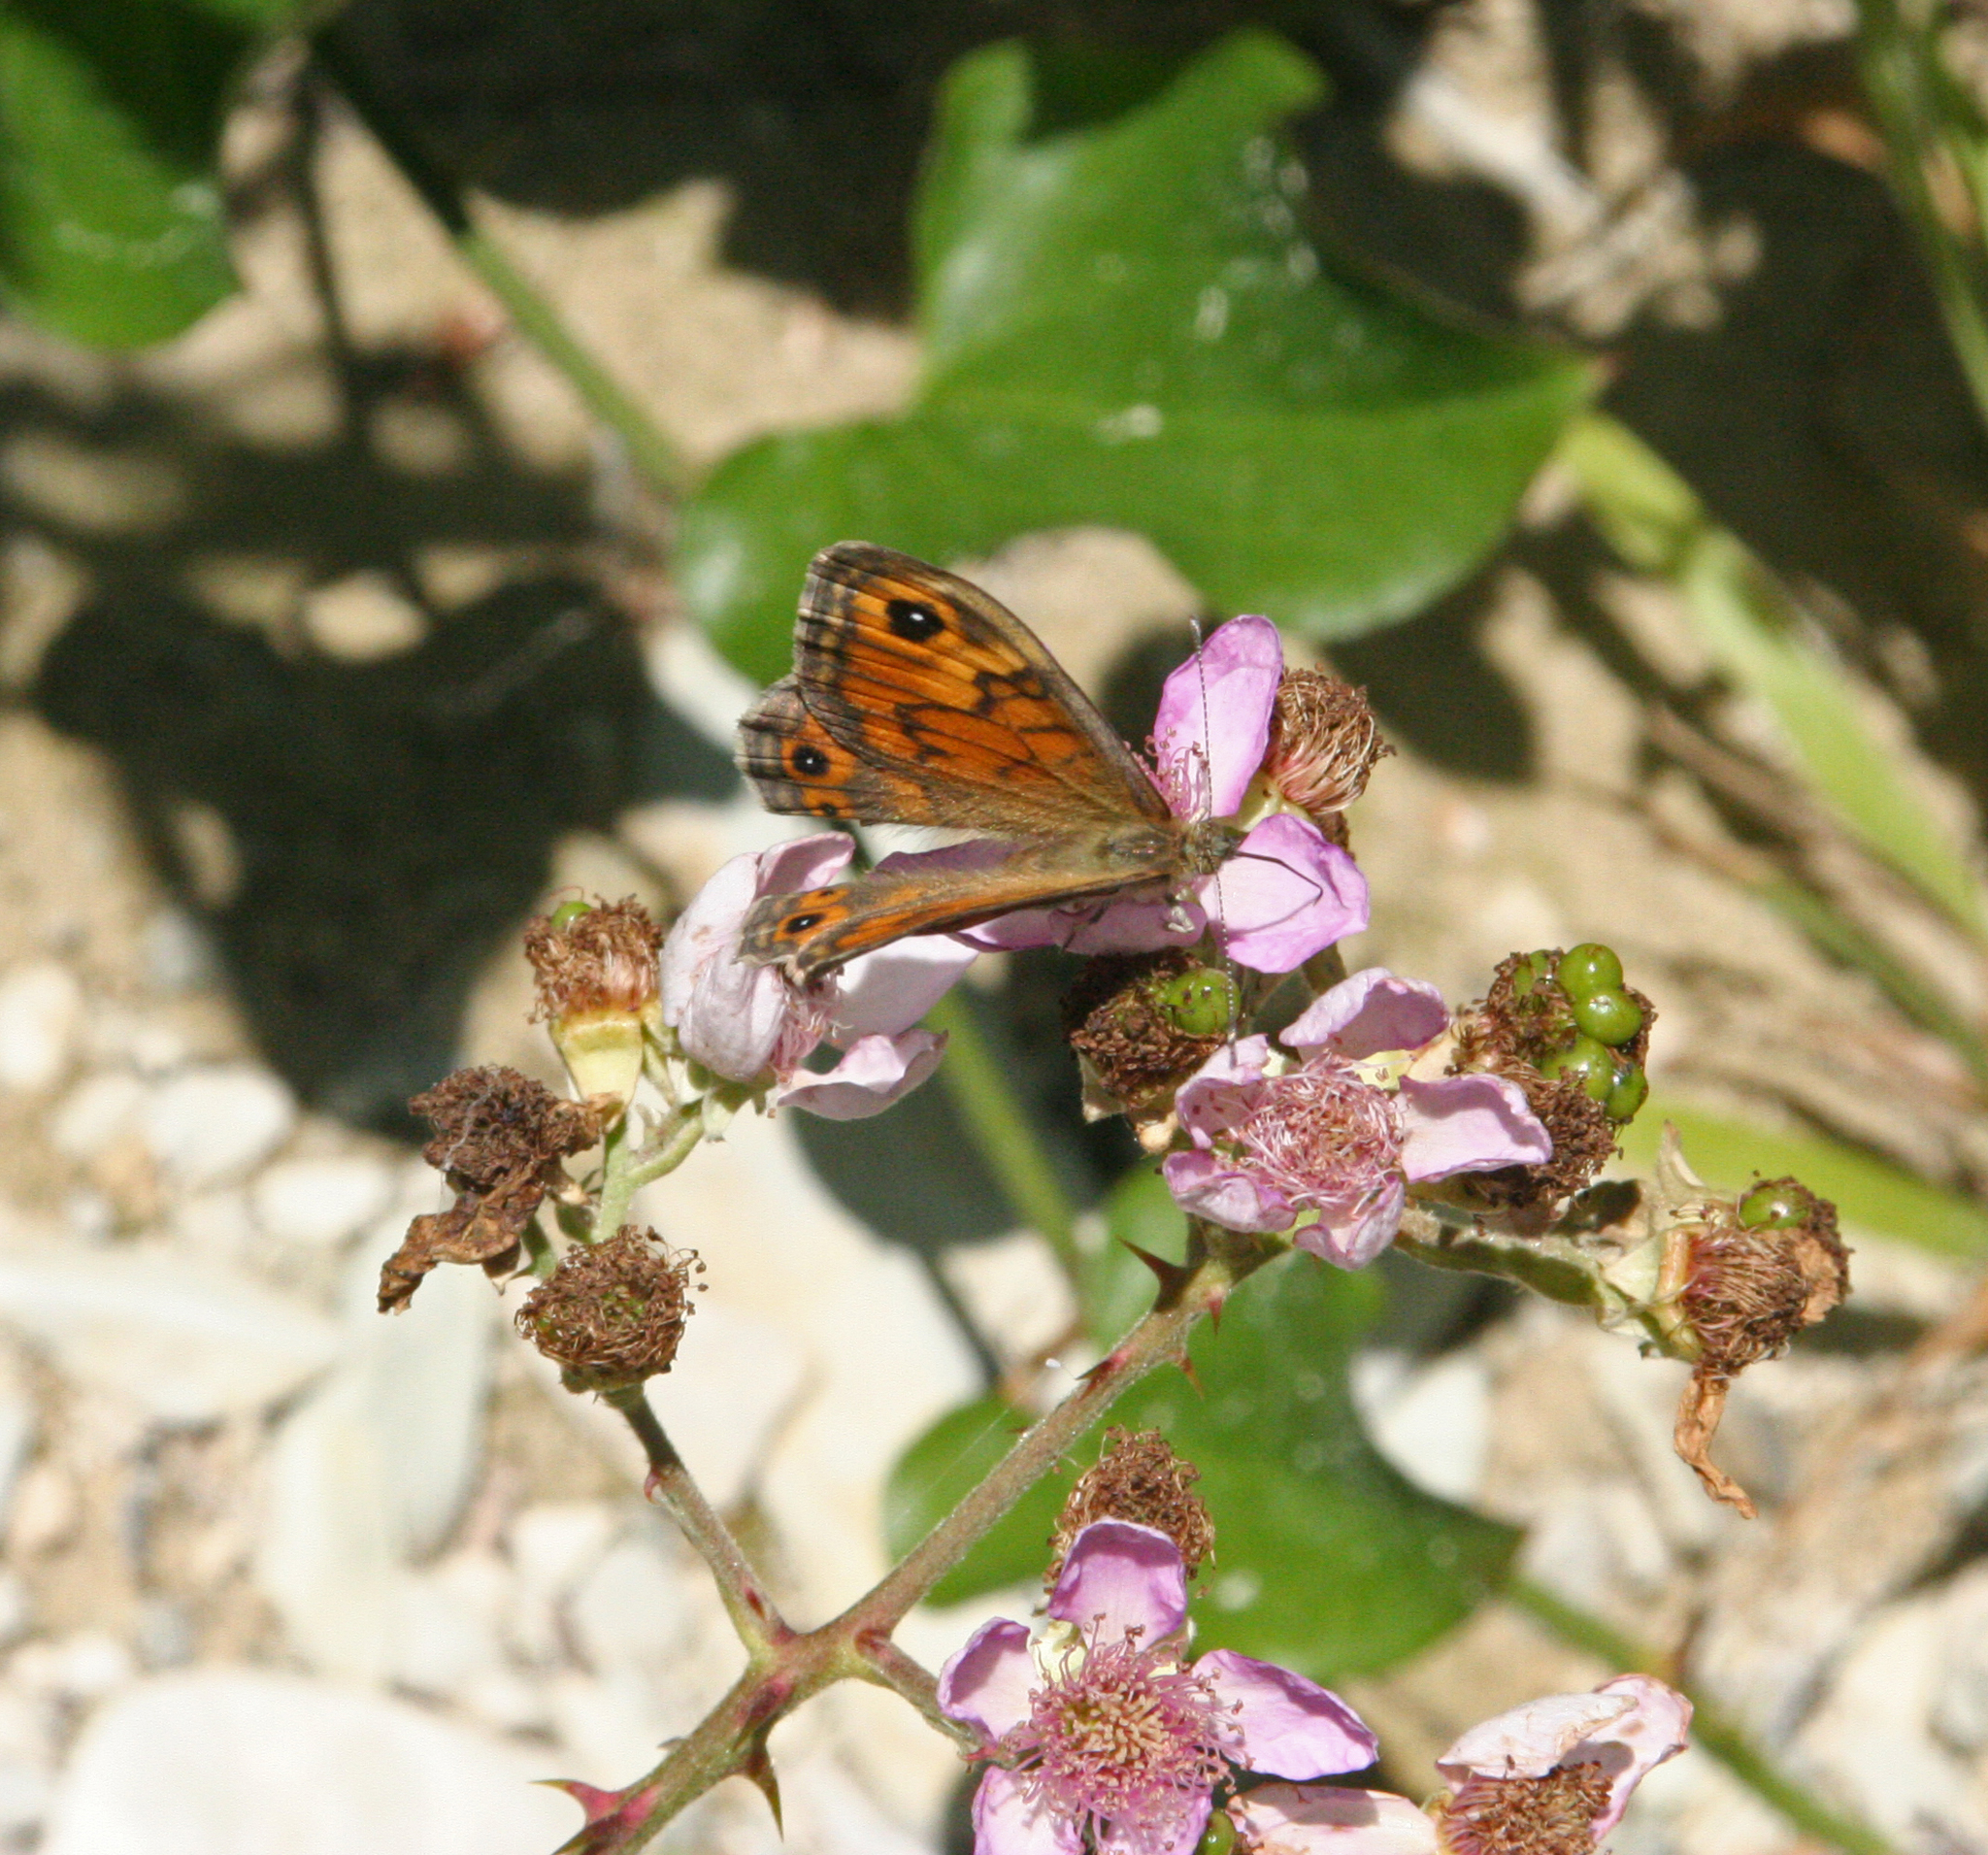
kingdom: Animalia
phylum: Arthropoda
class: Insecta
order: Lepidoptera
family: Nymphalidae
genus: Pararge
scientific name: Pararge Lasiommata megera
